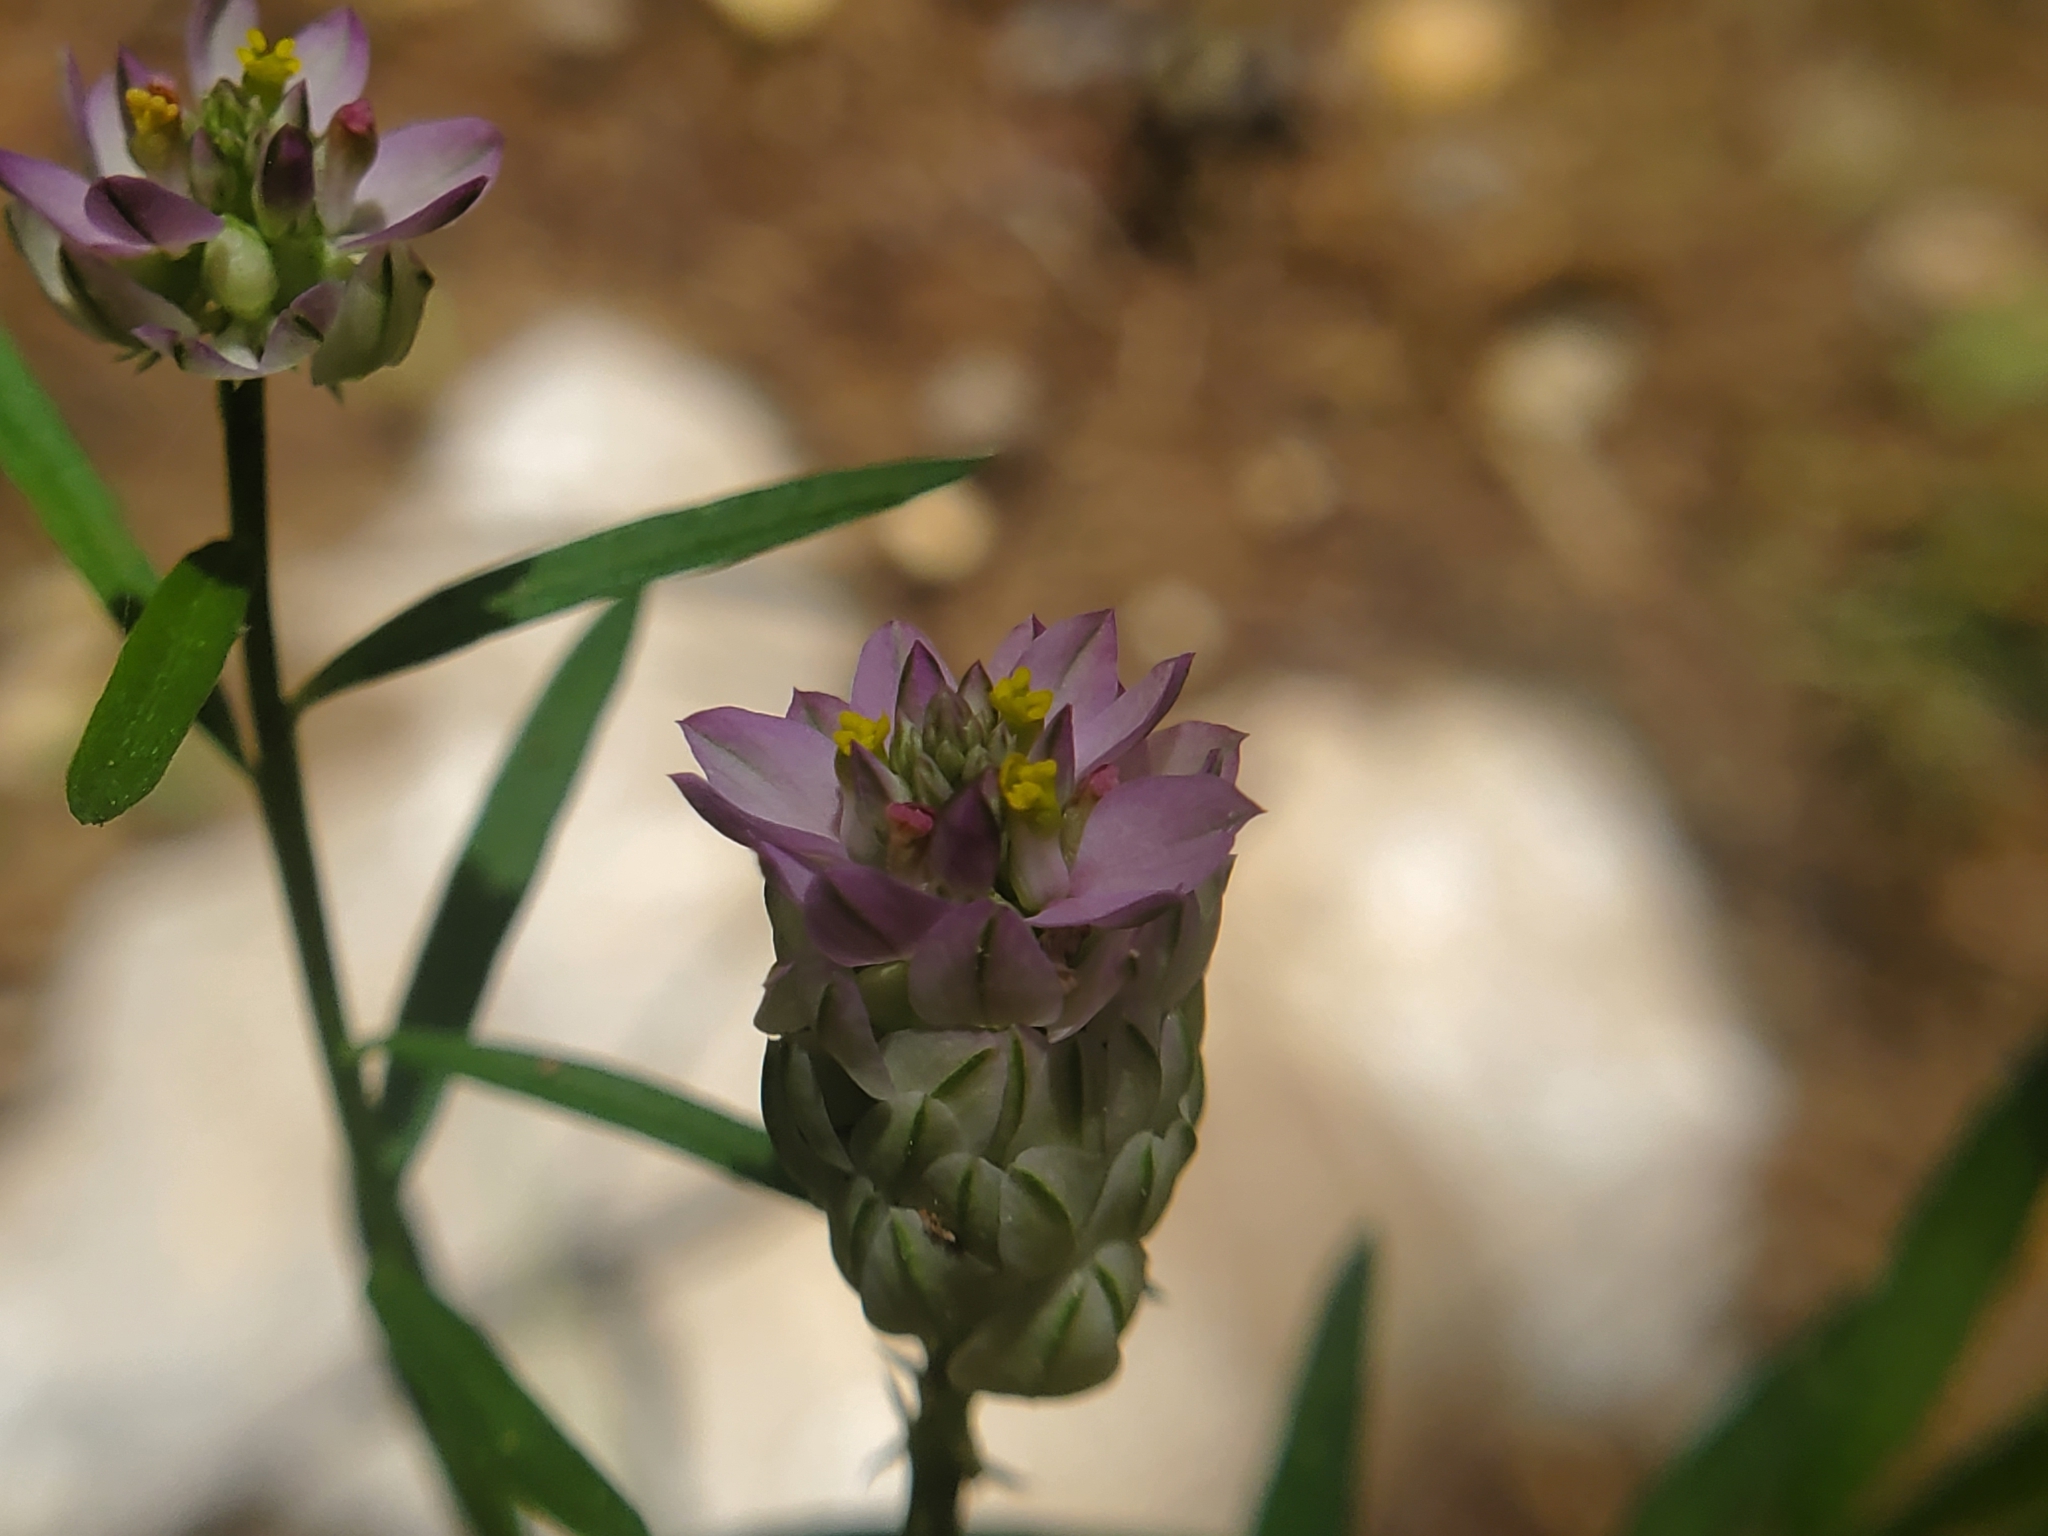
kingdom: Plantae
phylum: Tracheophyta
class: Magnoliopsida
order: Fabales
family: Polygalaceae
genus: Polygala
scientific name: Polygala sanguinea
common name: Blood milkwort
